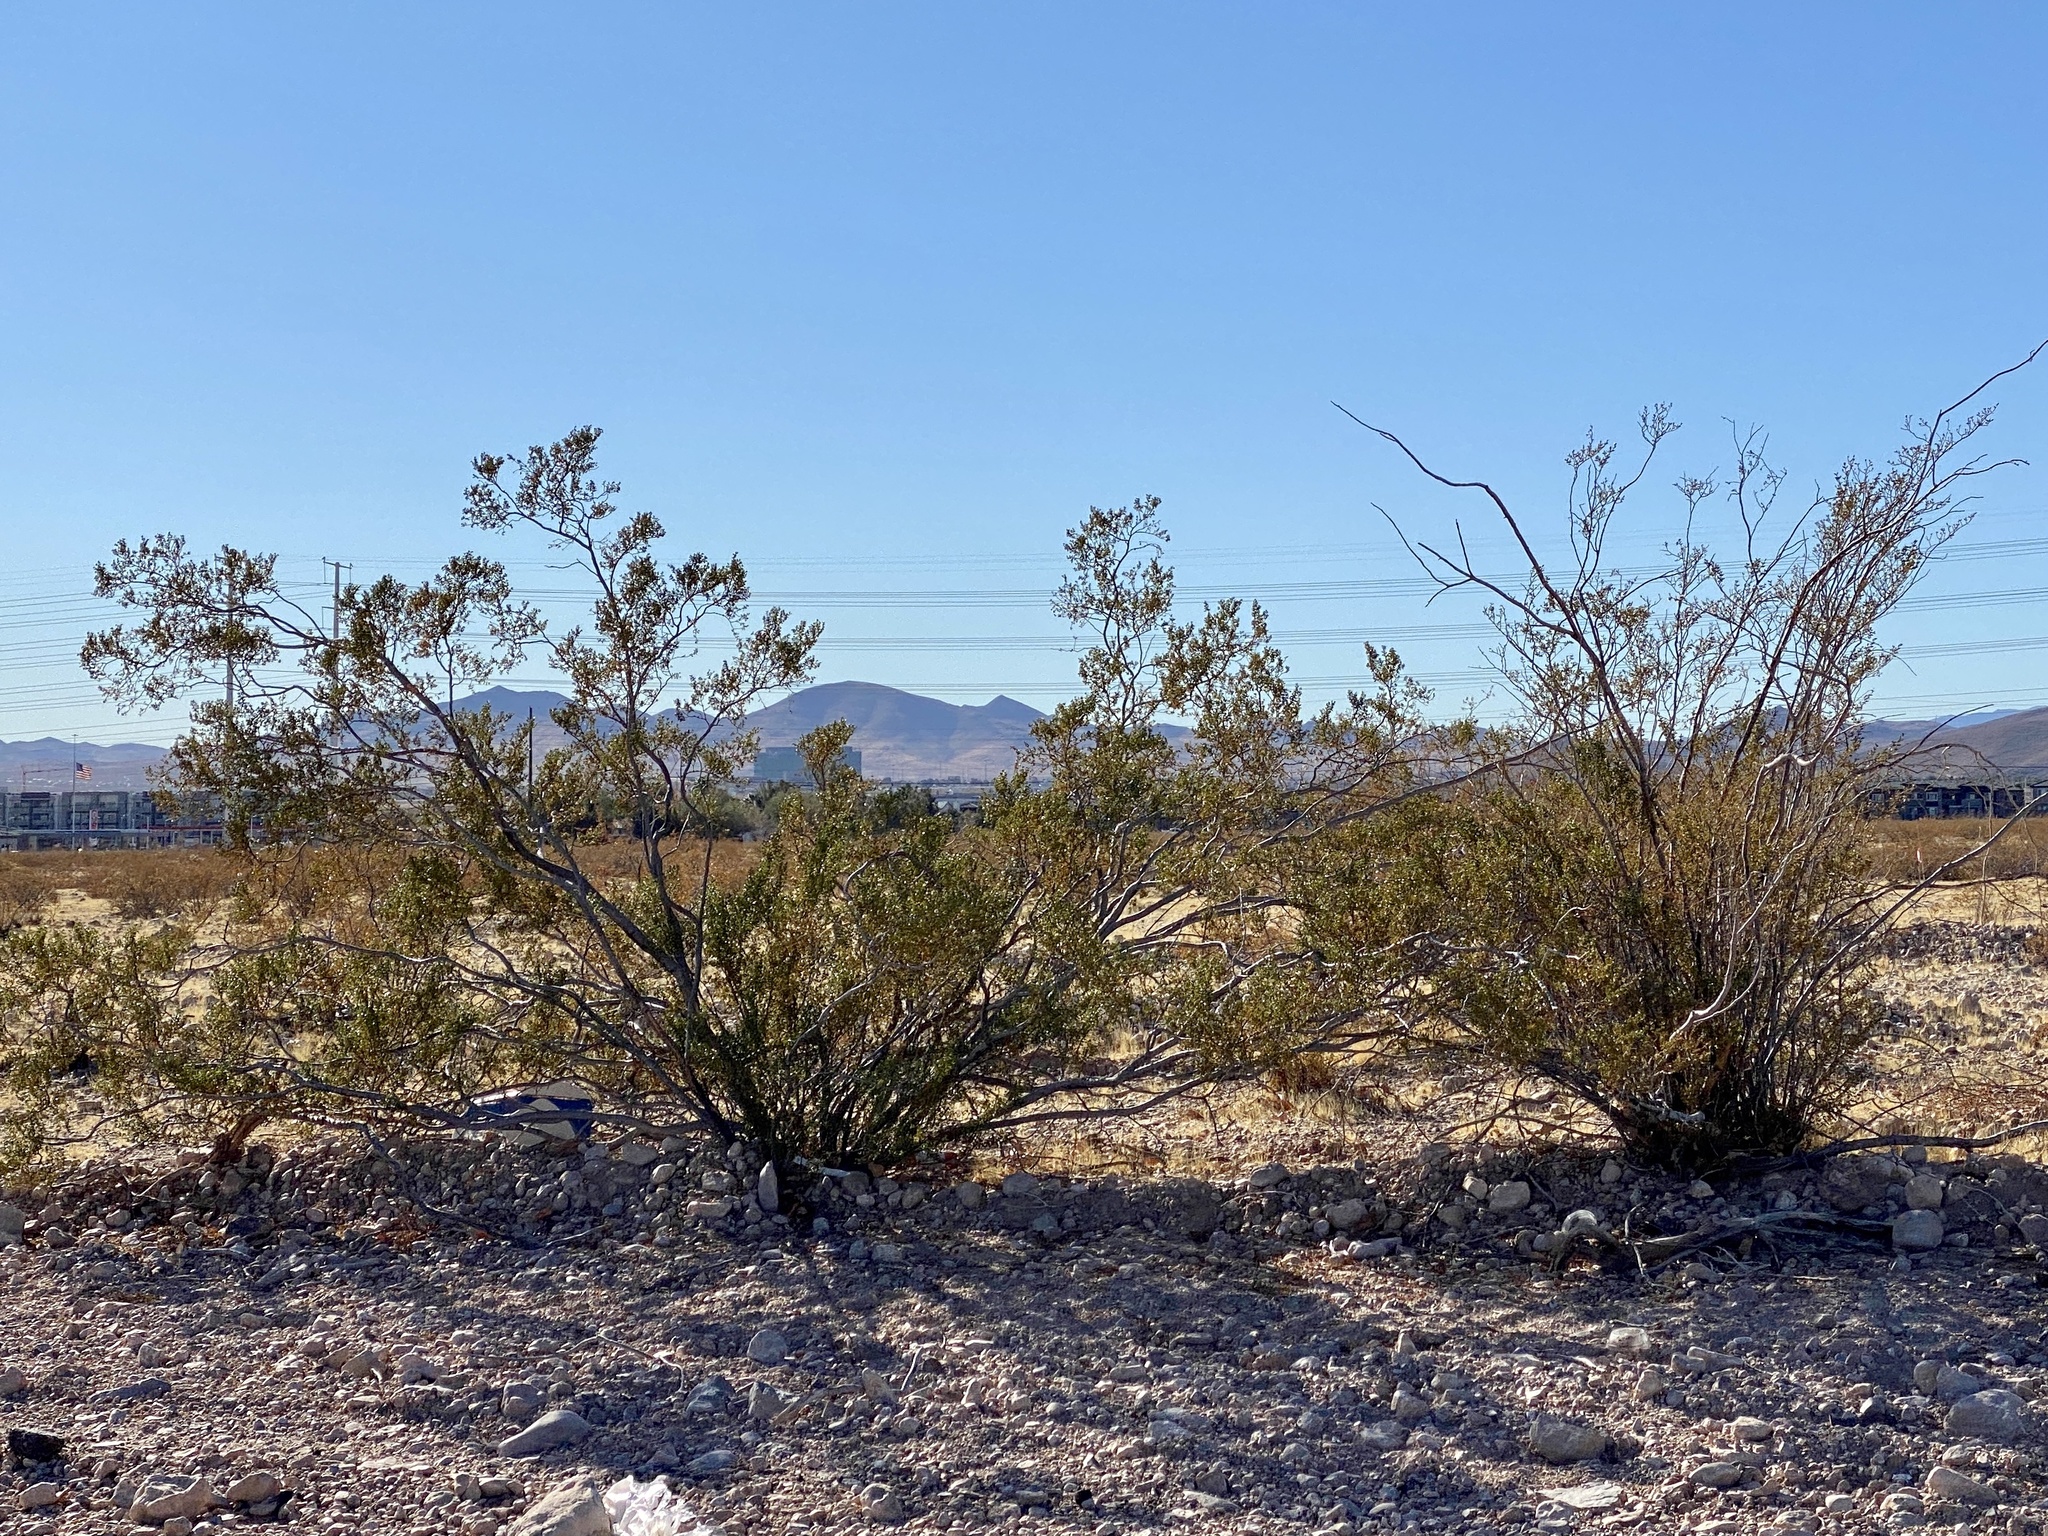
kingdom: Plantae
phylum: Tracheophyta
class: Magnoliopsida
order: Zygophyllales
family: Zygophyllaceae
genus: Larrea
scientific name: Larrea tridentata
